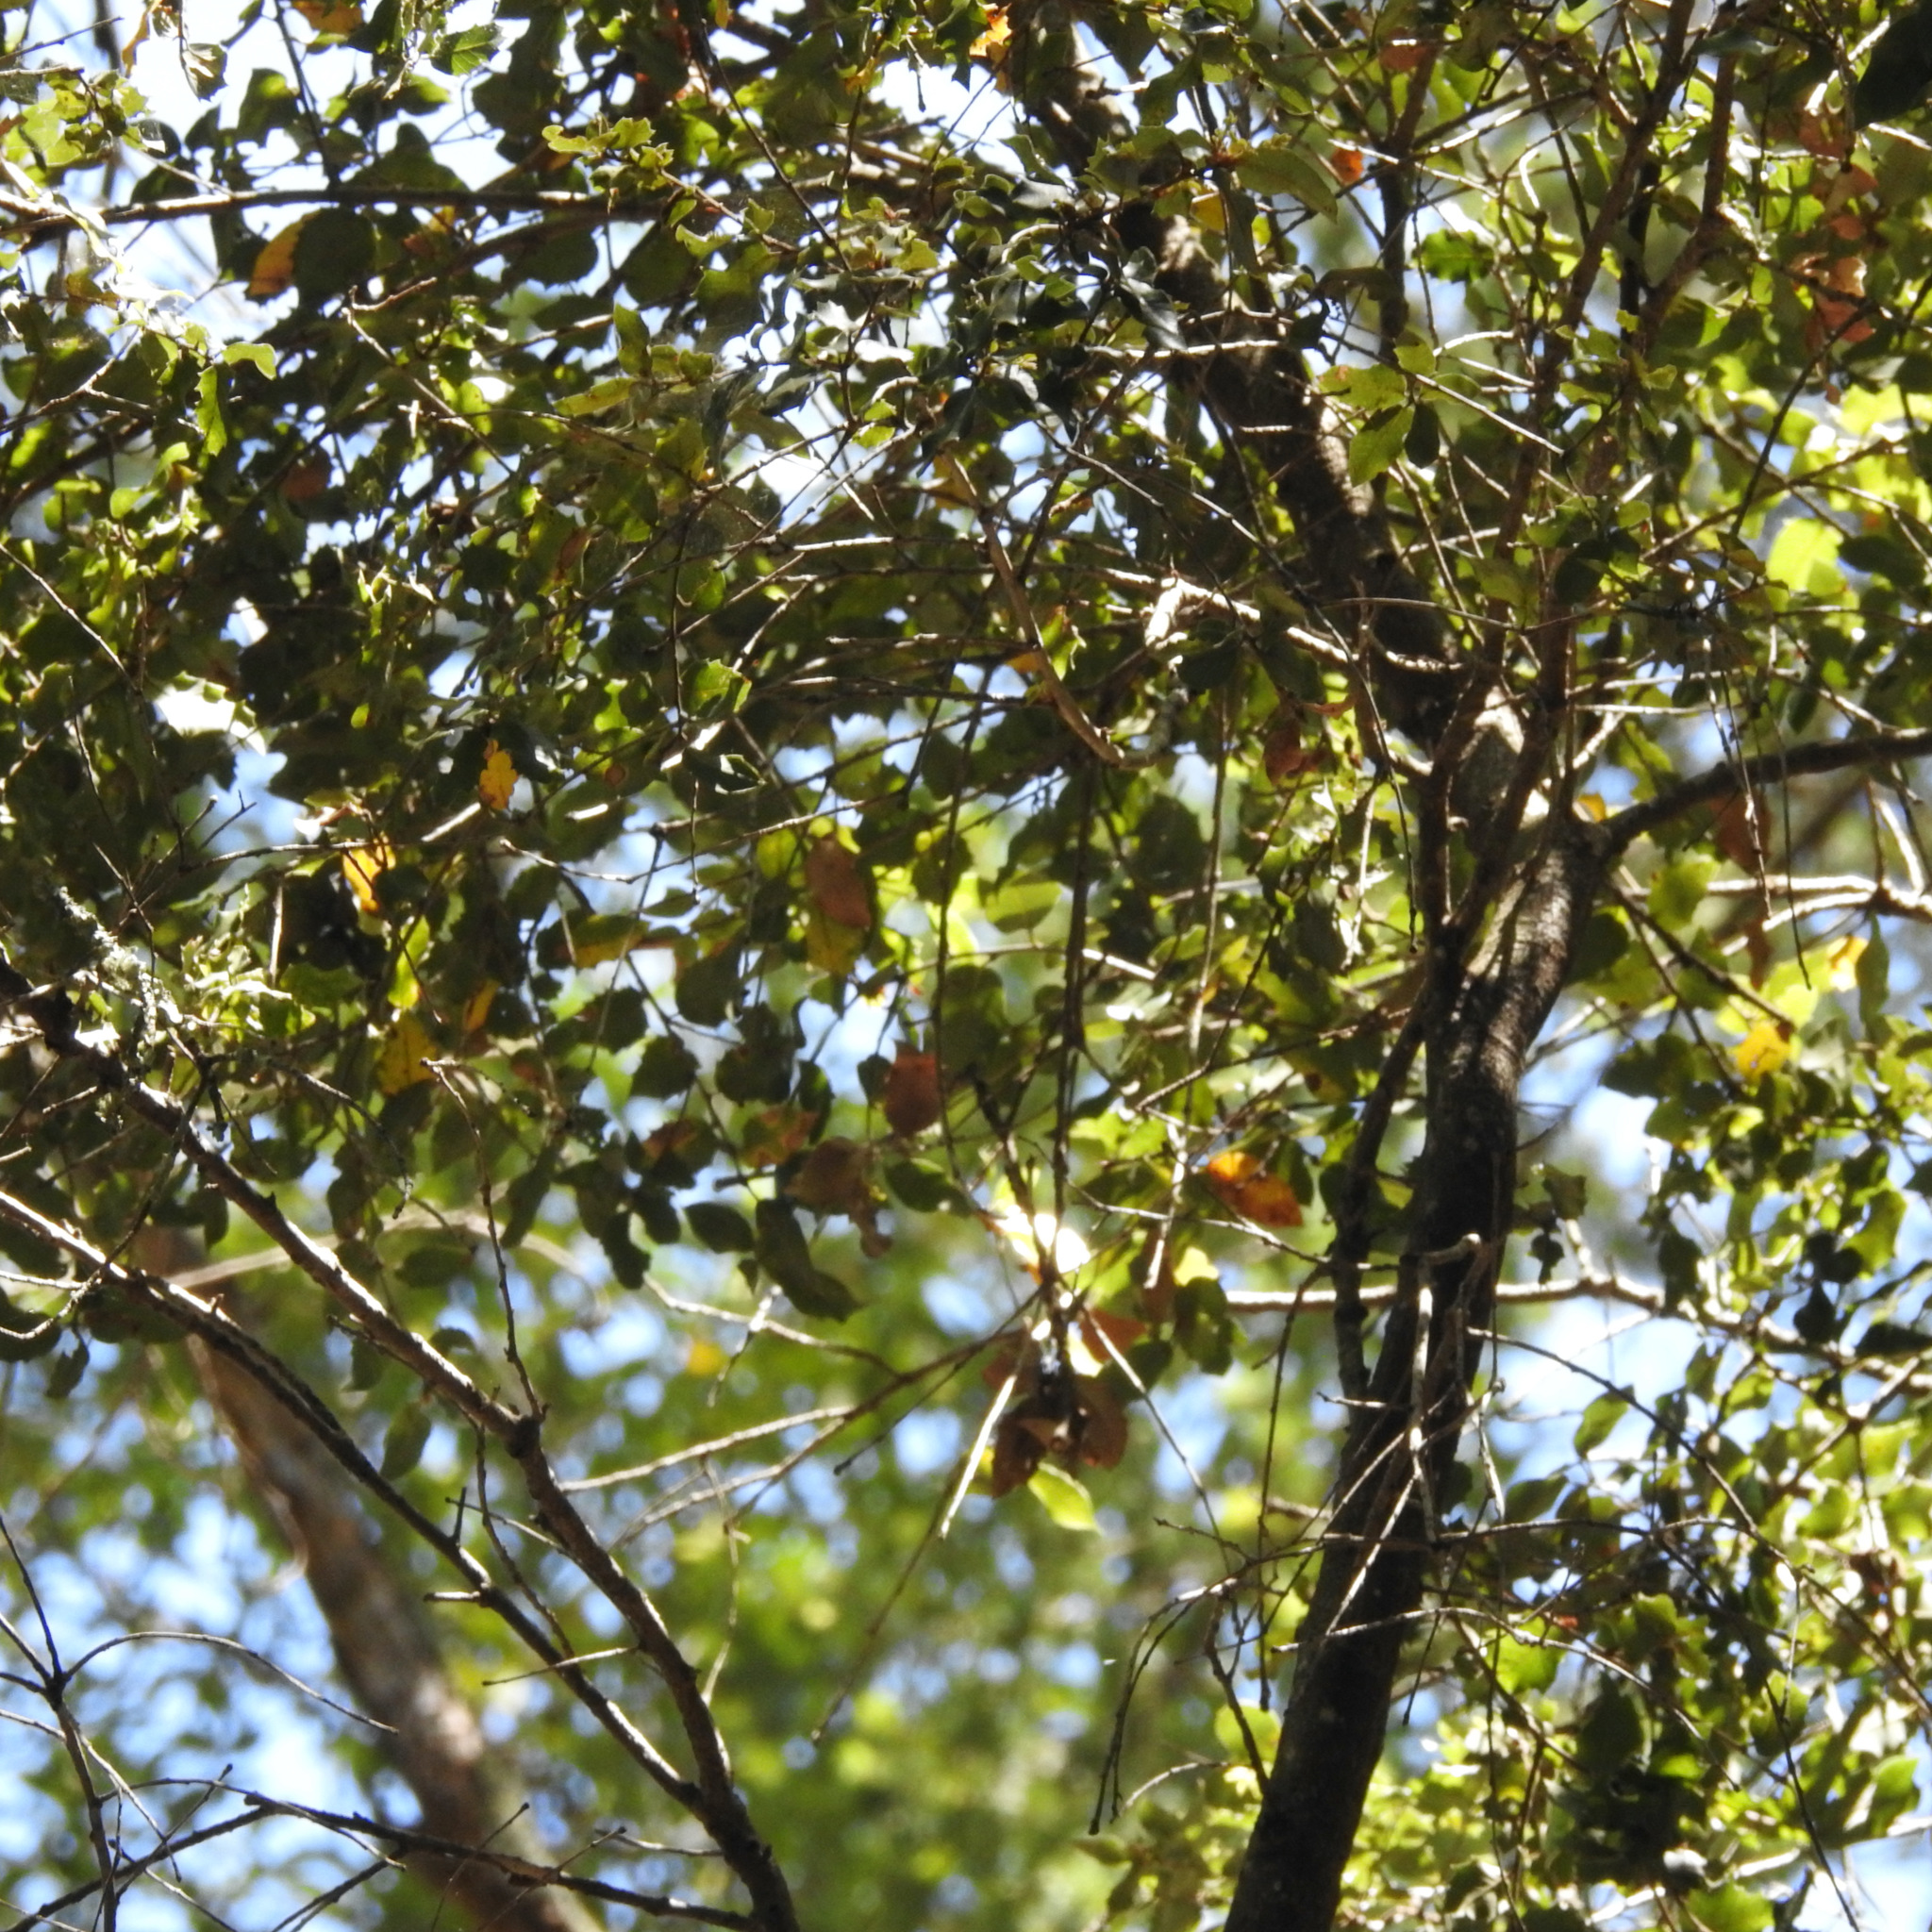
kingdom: Plantae
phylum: Tracheophyta
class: Magnoliopsida
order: Fagales
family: Fagaceae
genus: Quercus
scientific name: Quercus agrifolia
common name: California live oak
